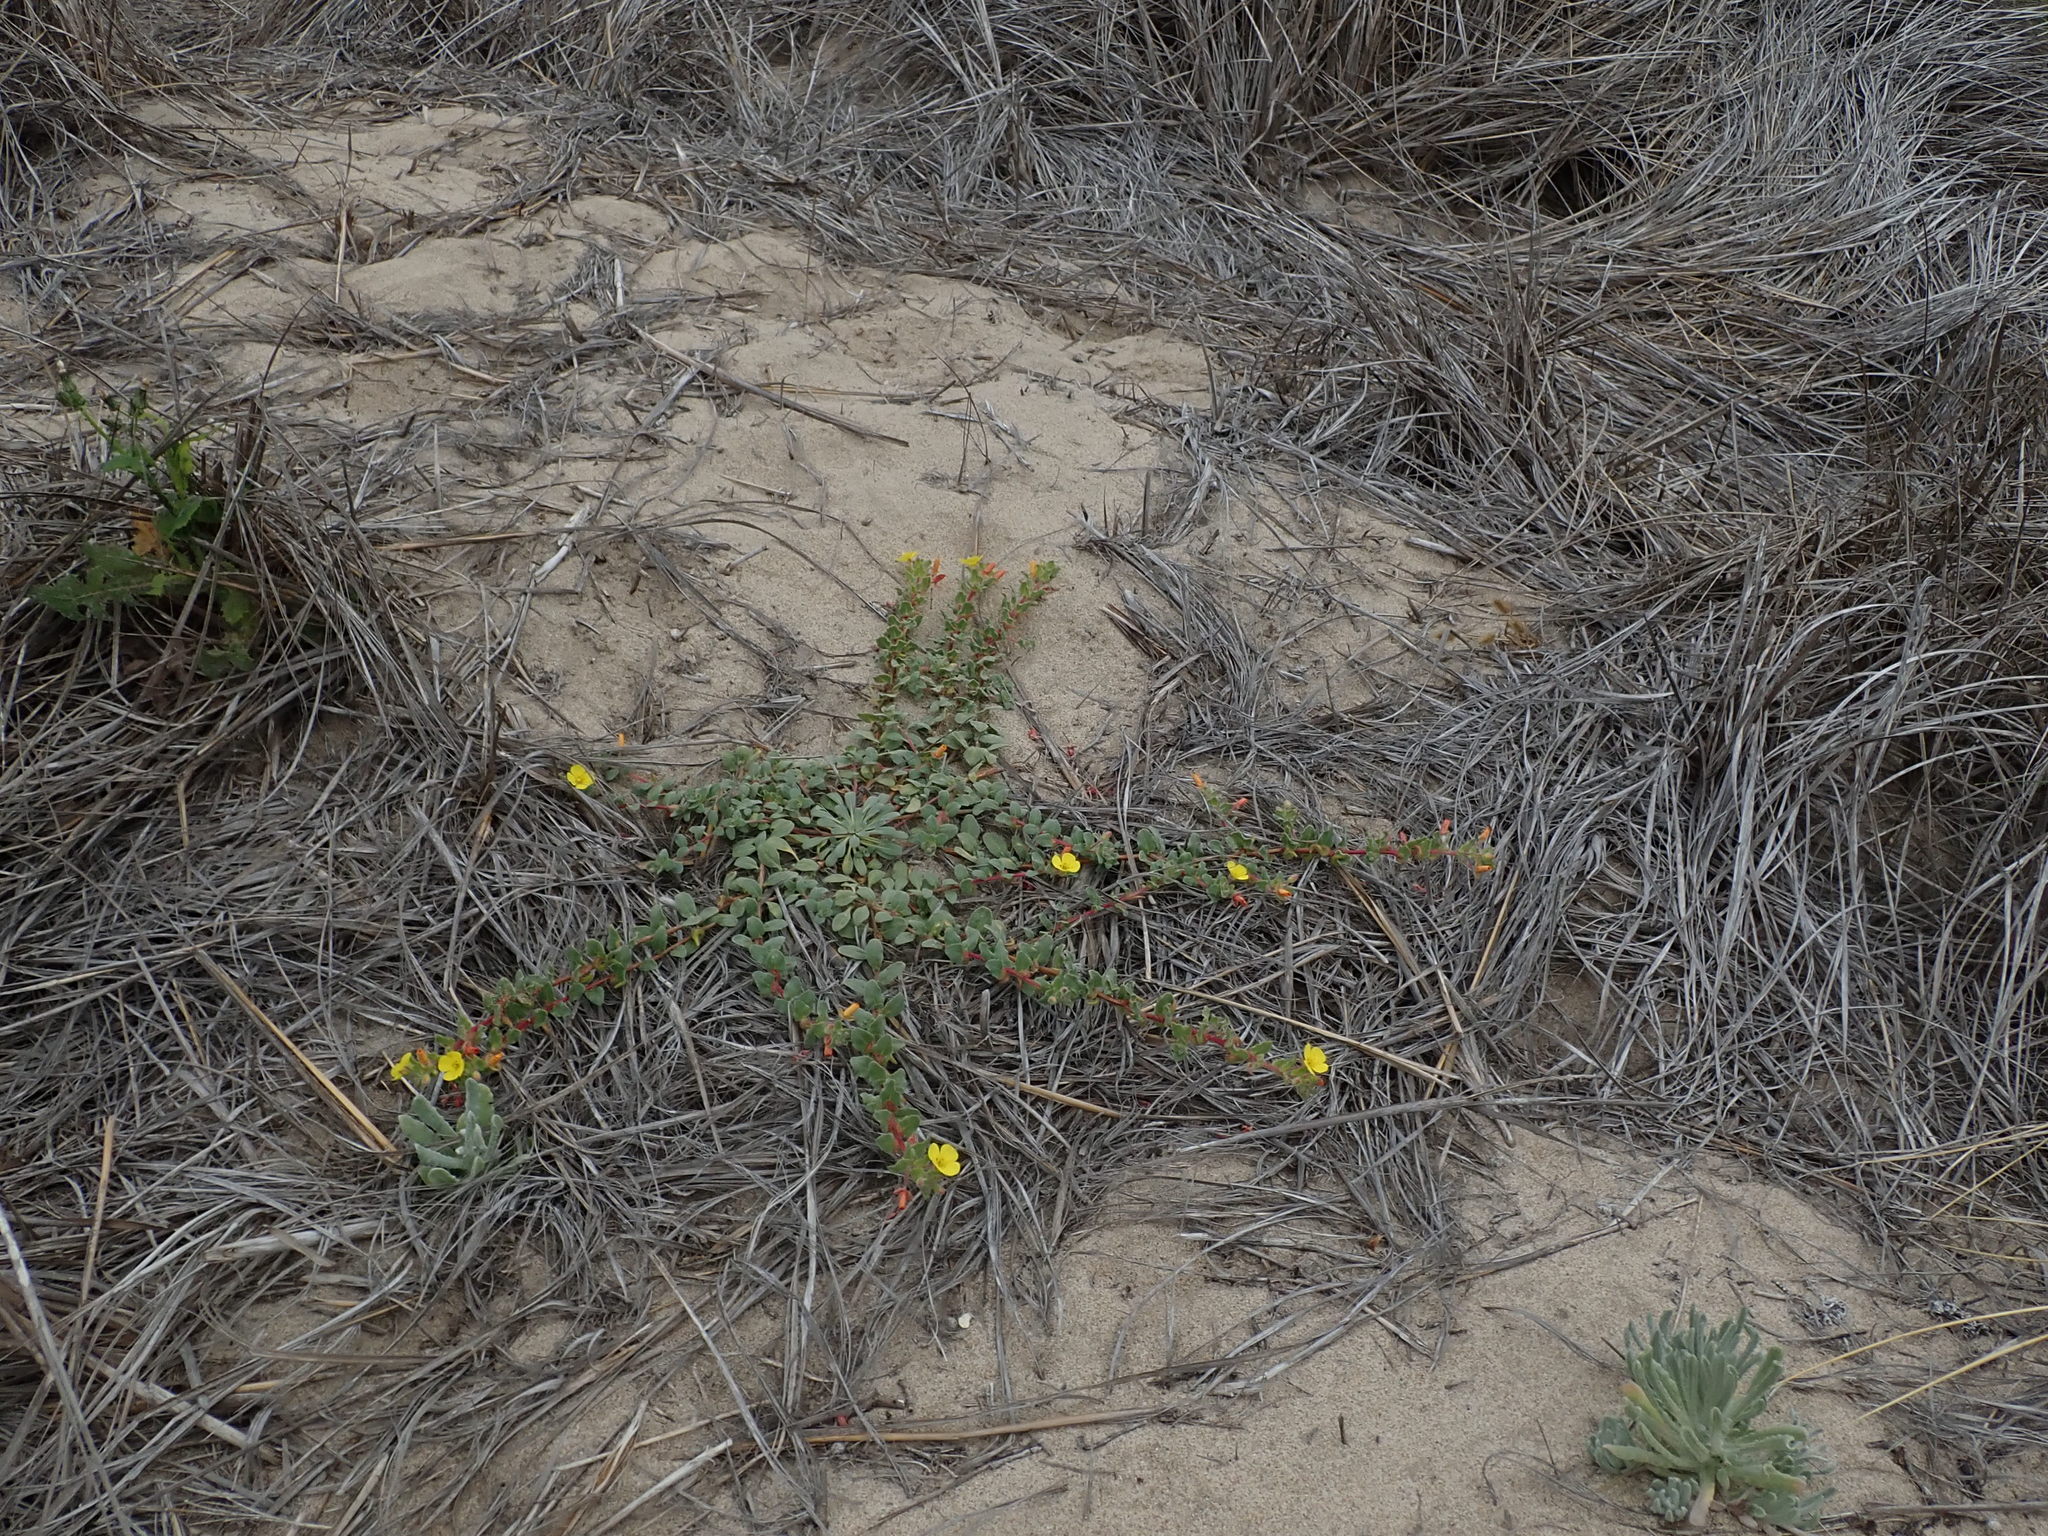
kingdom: Plantae
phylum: Tracheophyta
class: Magnoliopsida
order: Myrtales
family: Onagraceae
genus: Camissoniopsis
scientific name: Camissoniopsis cheiranthifolia
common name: Beach suncup
